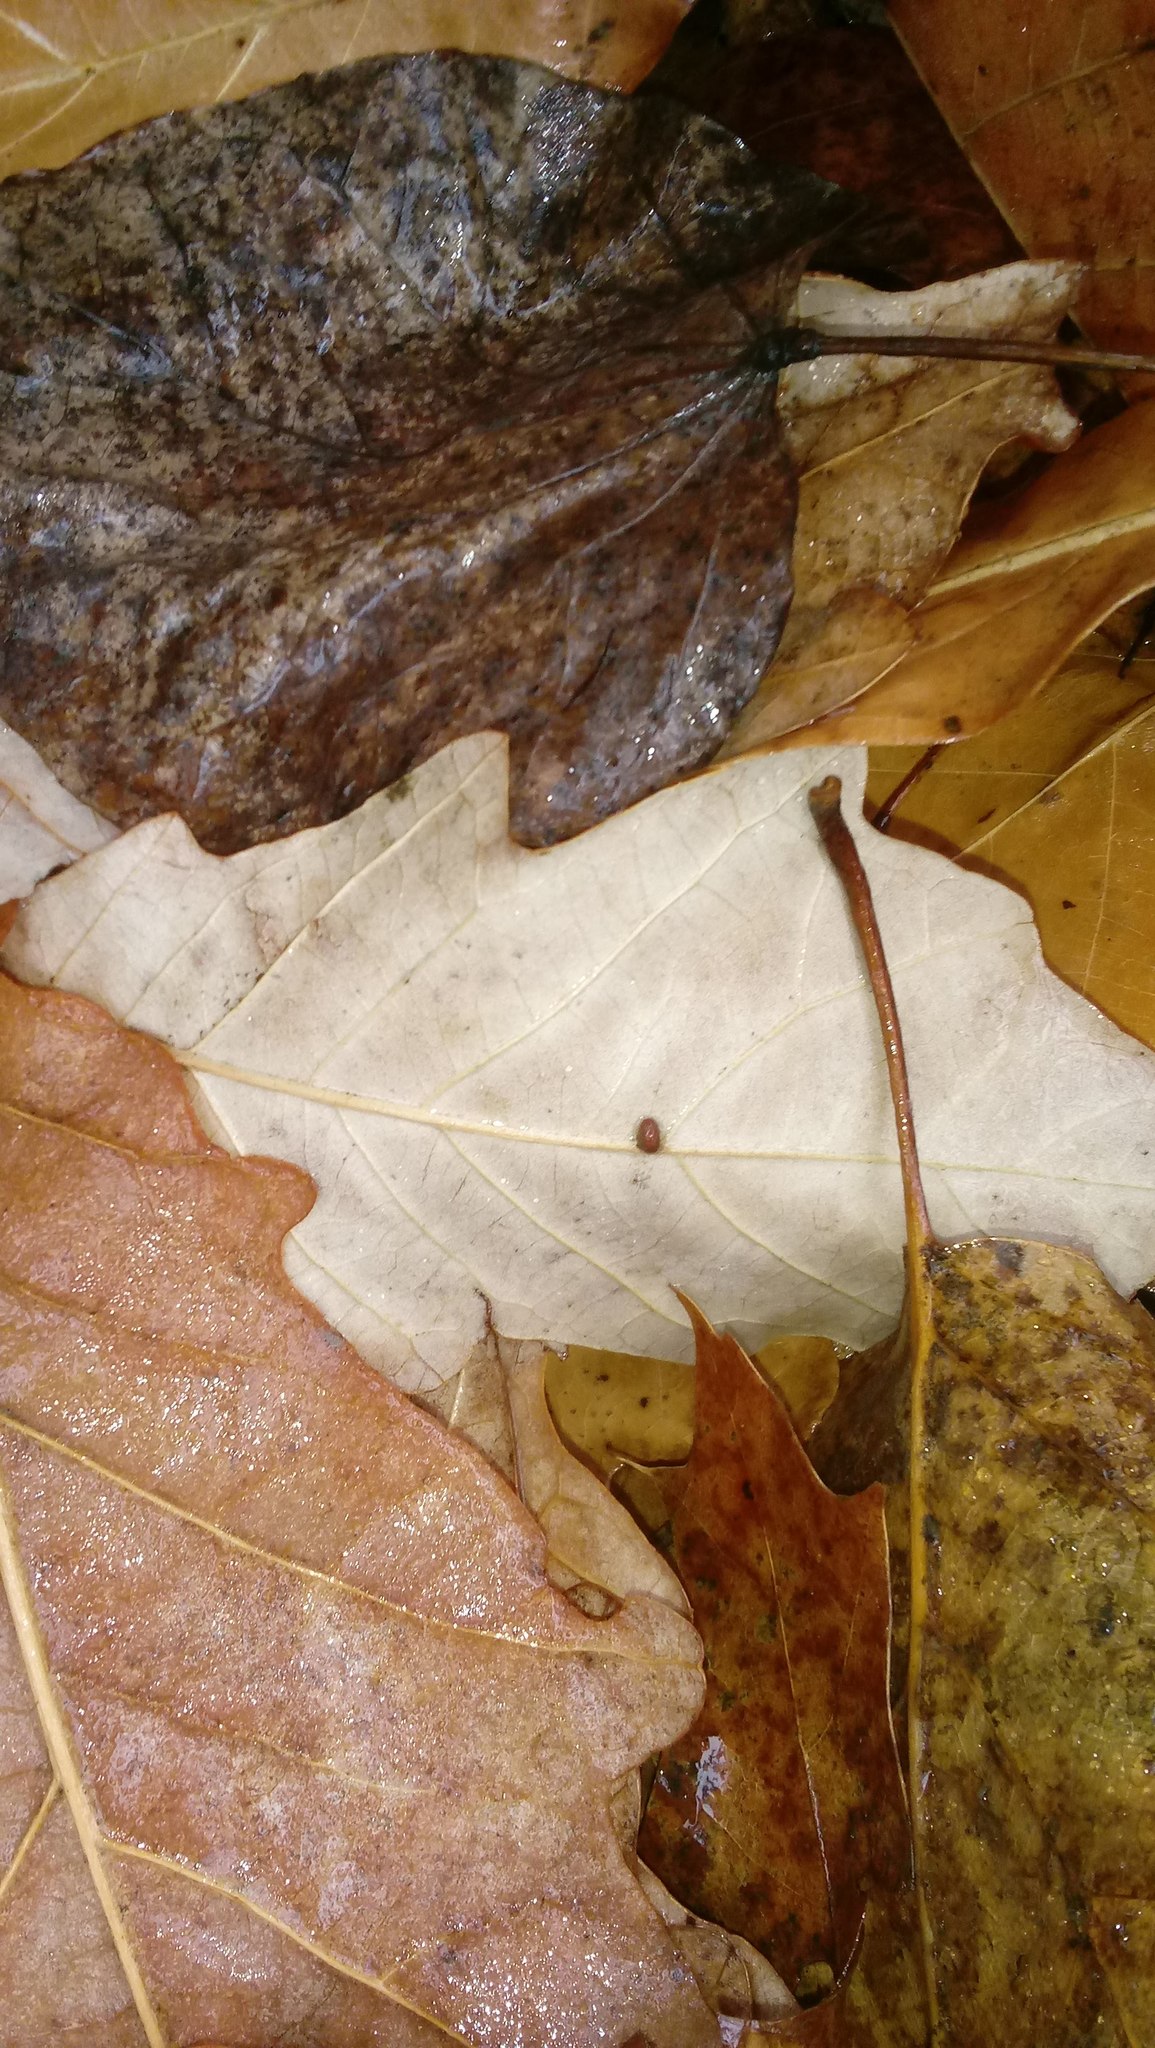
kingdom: Animalia
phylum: Arthropoda
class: Insecta
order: Hymenoptera
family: Cynipidae
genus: Andricus
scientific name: Andricus Druon ignotum
